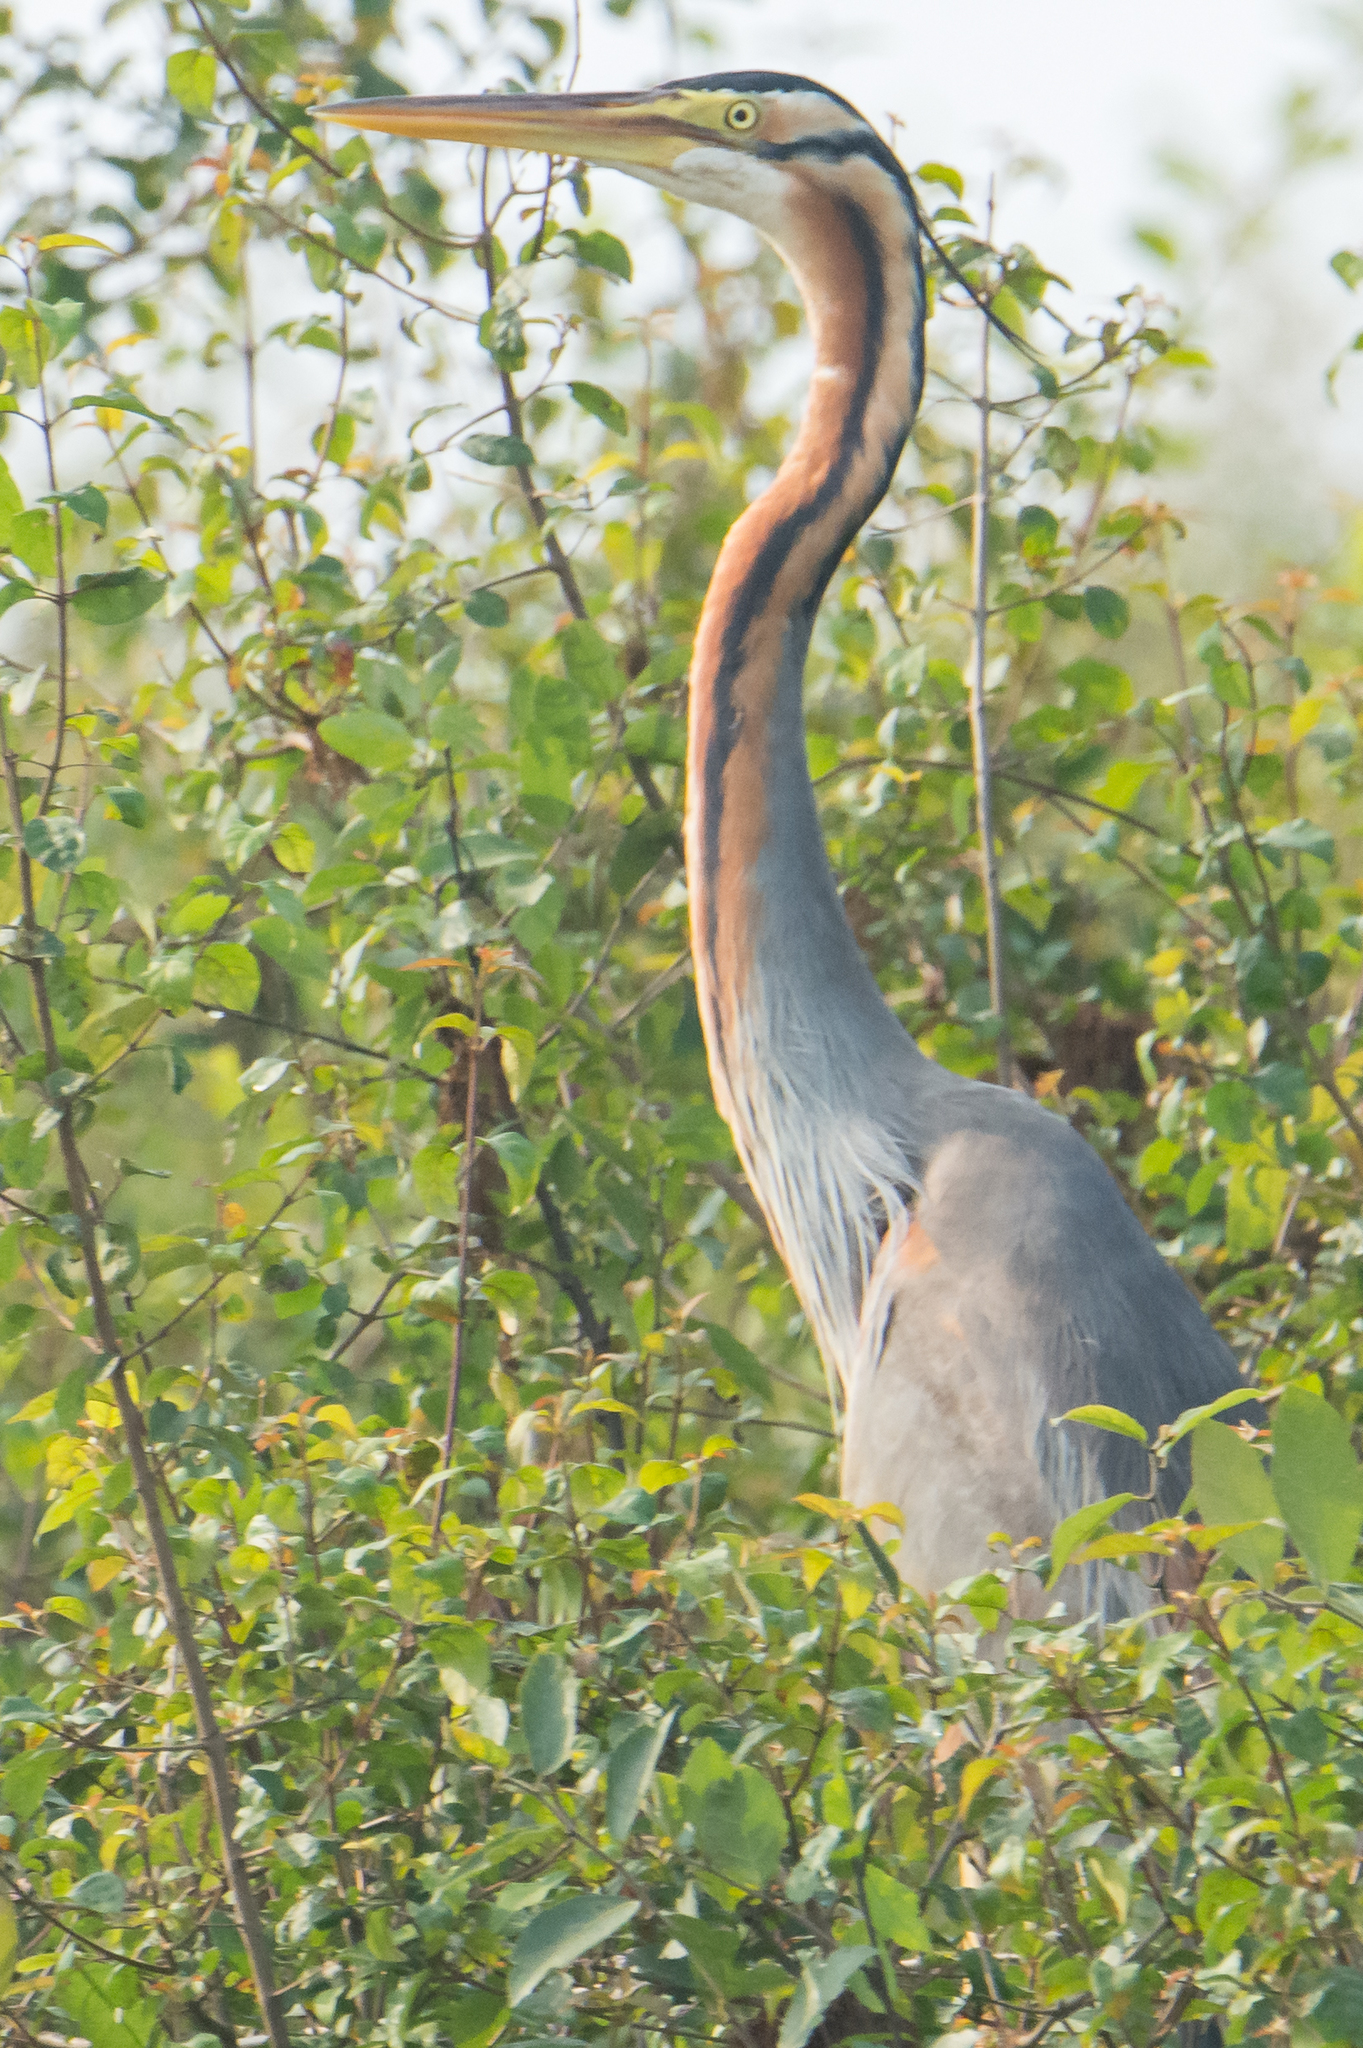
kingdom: Animalia
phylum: Chordata
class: Aves
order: Pelecaniformes
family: Ardeidae
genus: Ardea
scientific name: Ardea purpurea
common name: Purple heron
